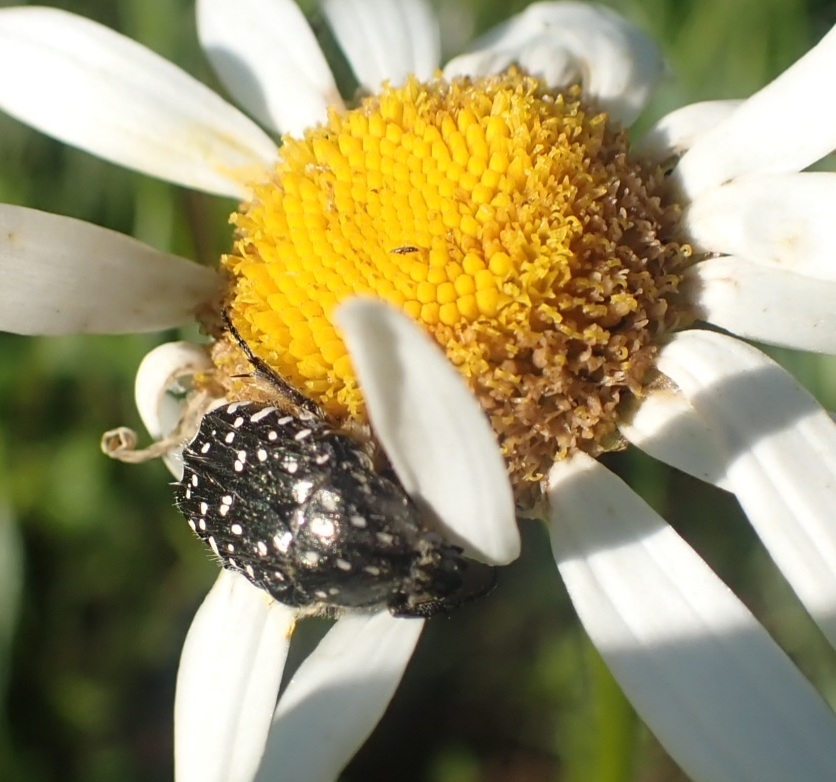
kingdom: Animalia
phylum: Arthropoda
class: Insecta
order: Coleoptera
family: Scarabaeidae
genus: Oxythyrea
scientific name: Oxythyrea funesta
